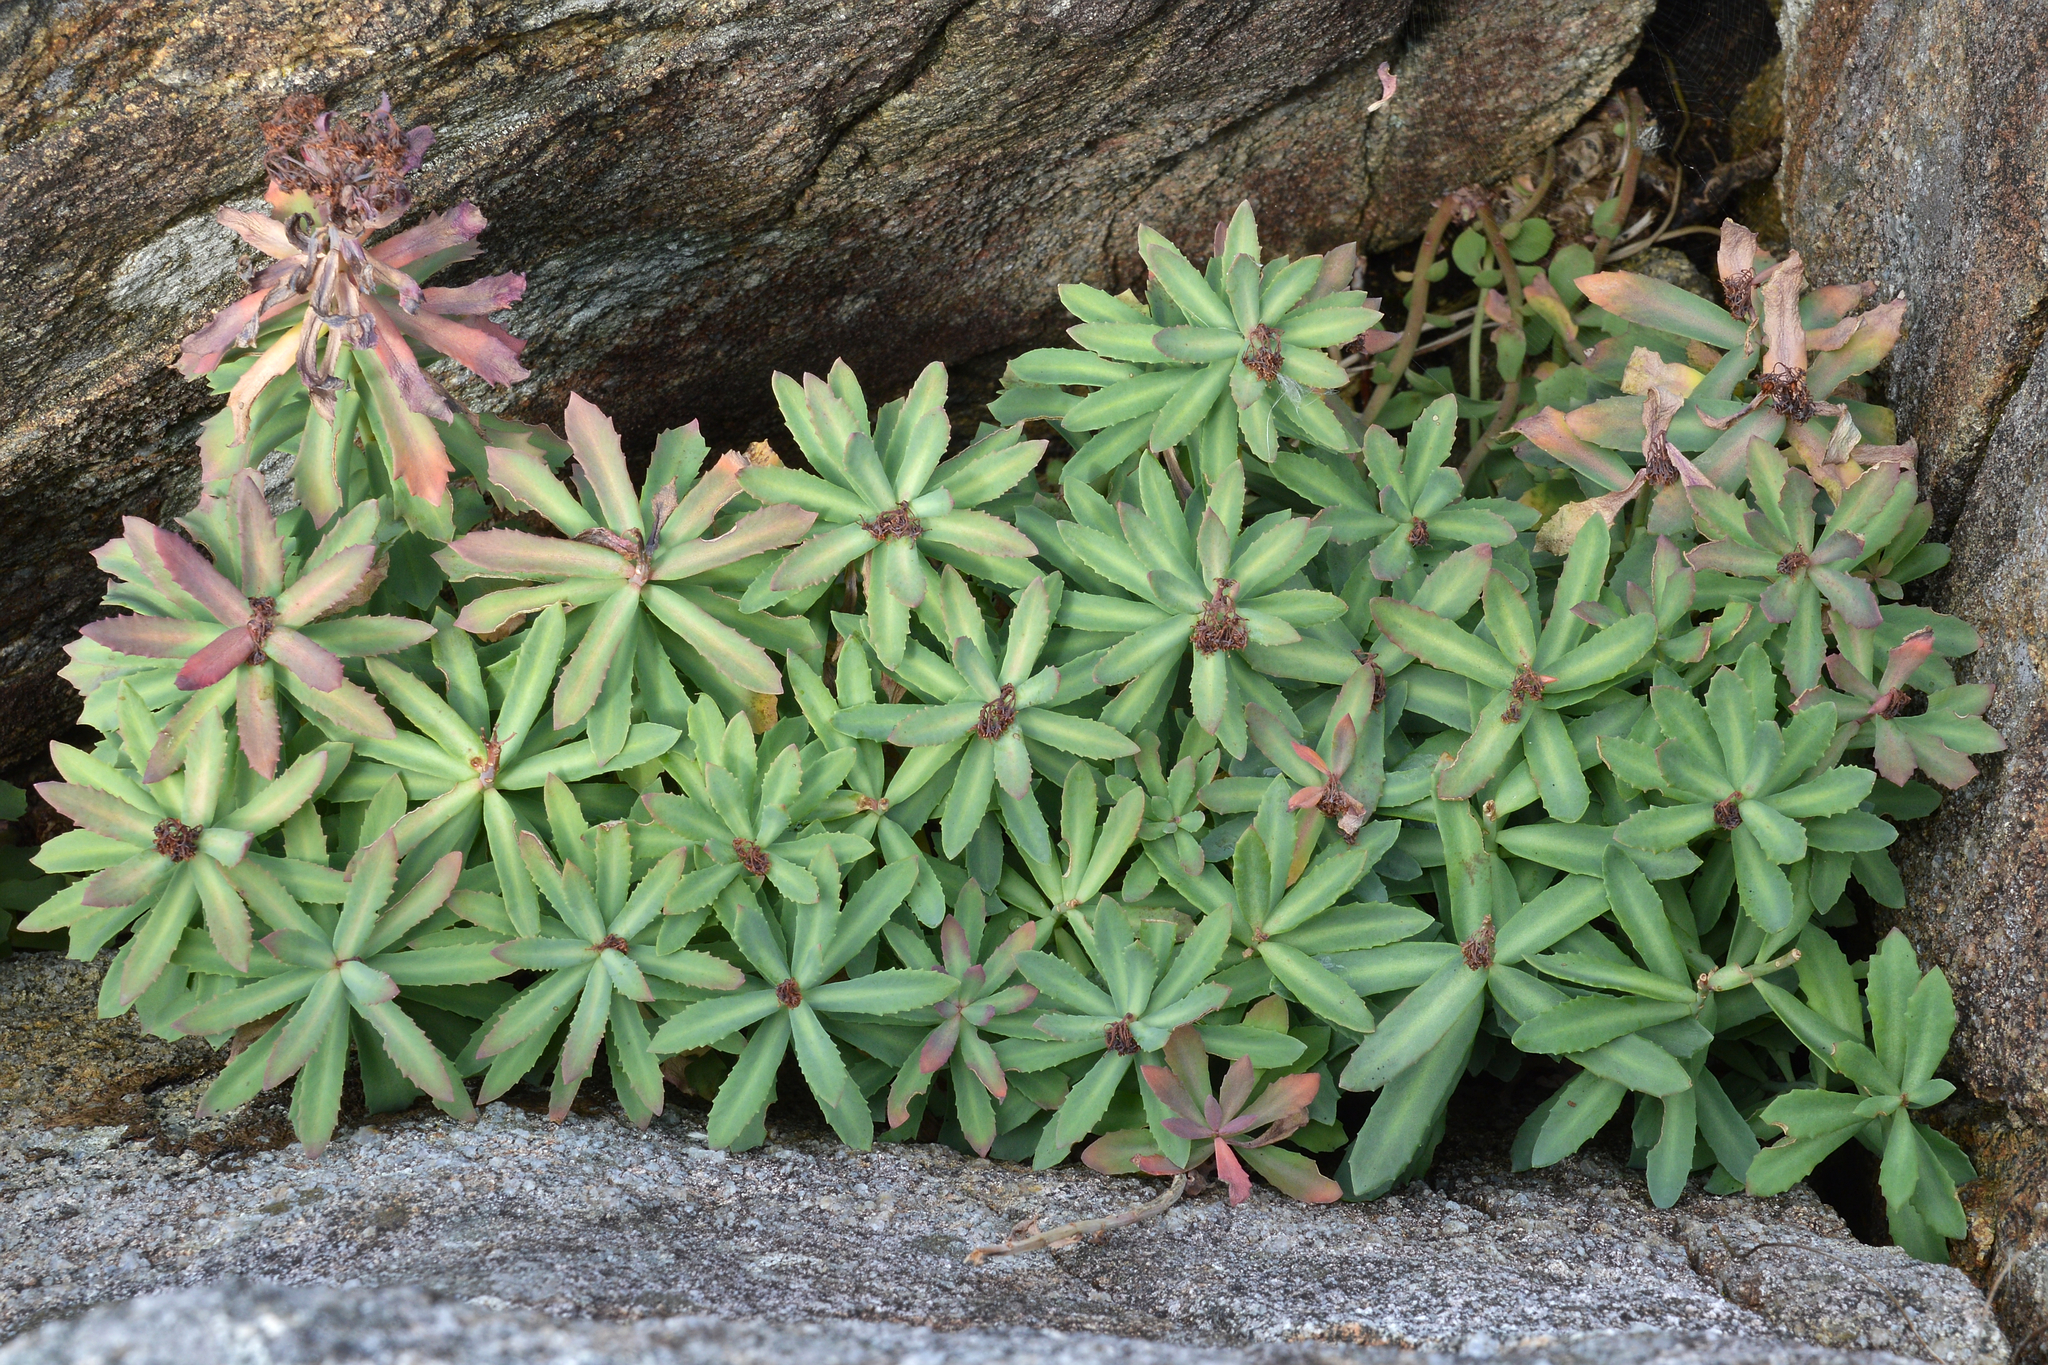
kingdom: Plantae
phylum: Tracheophyta
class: Magnoliopsida
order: Saxifragales
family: Crassulaceae
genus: Rhodiola
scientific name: Rhodiola rosea
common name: Roseroot
